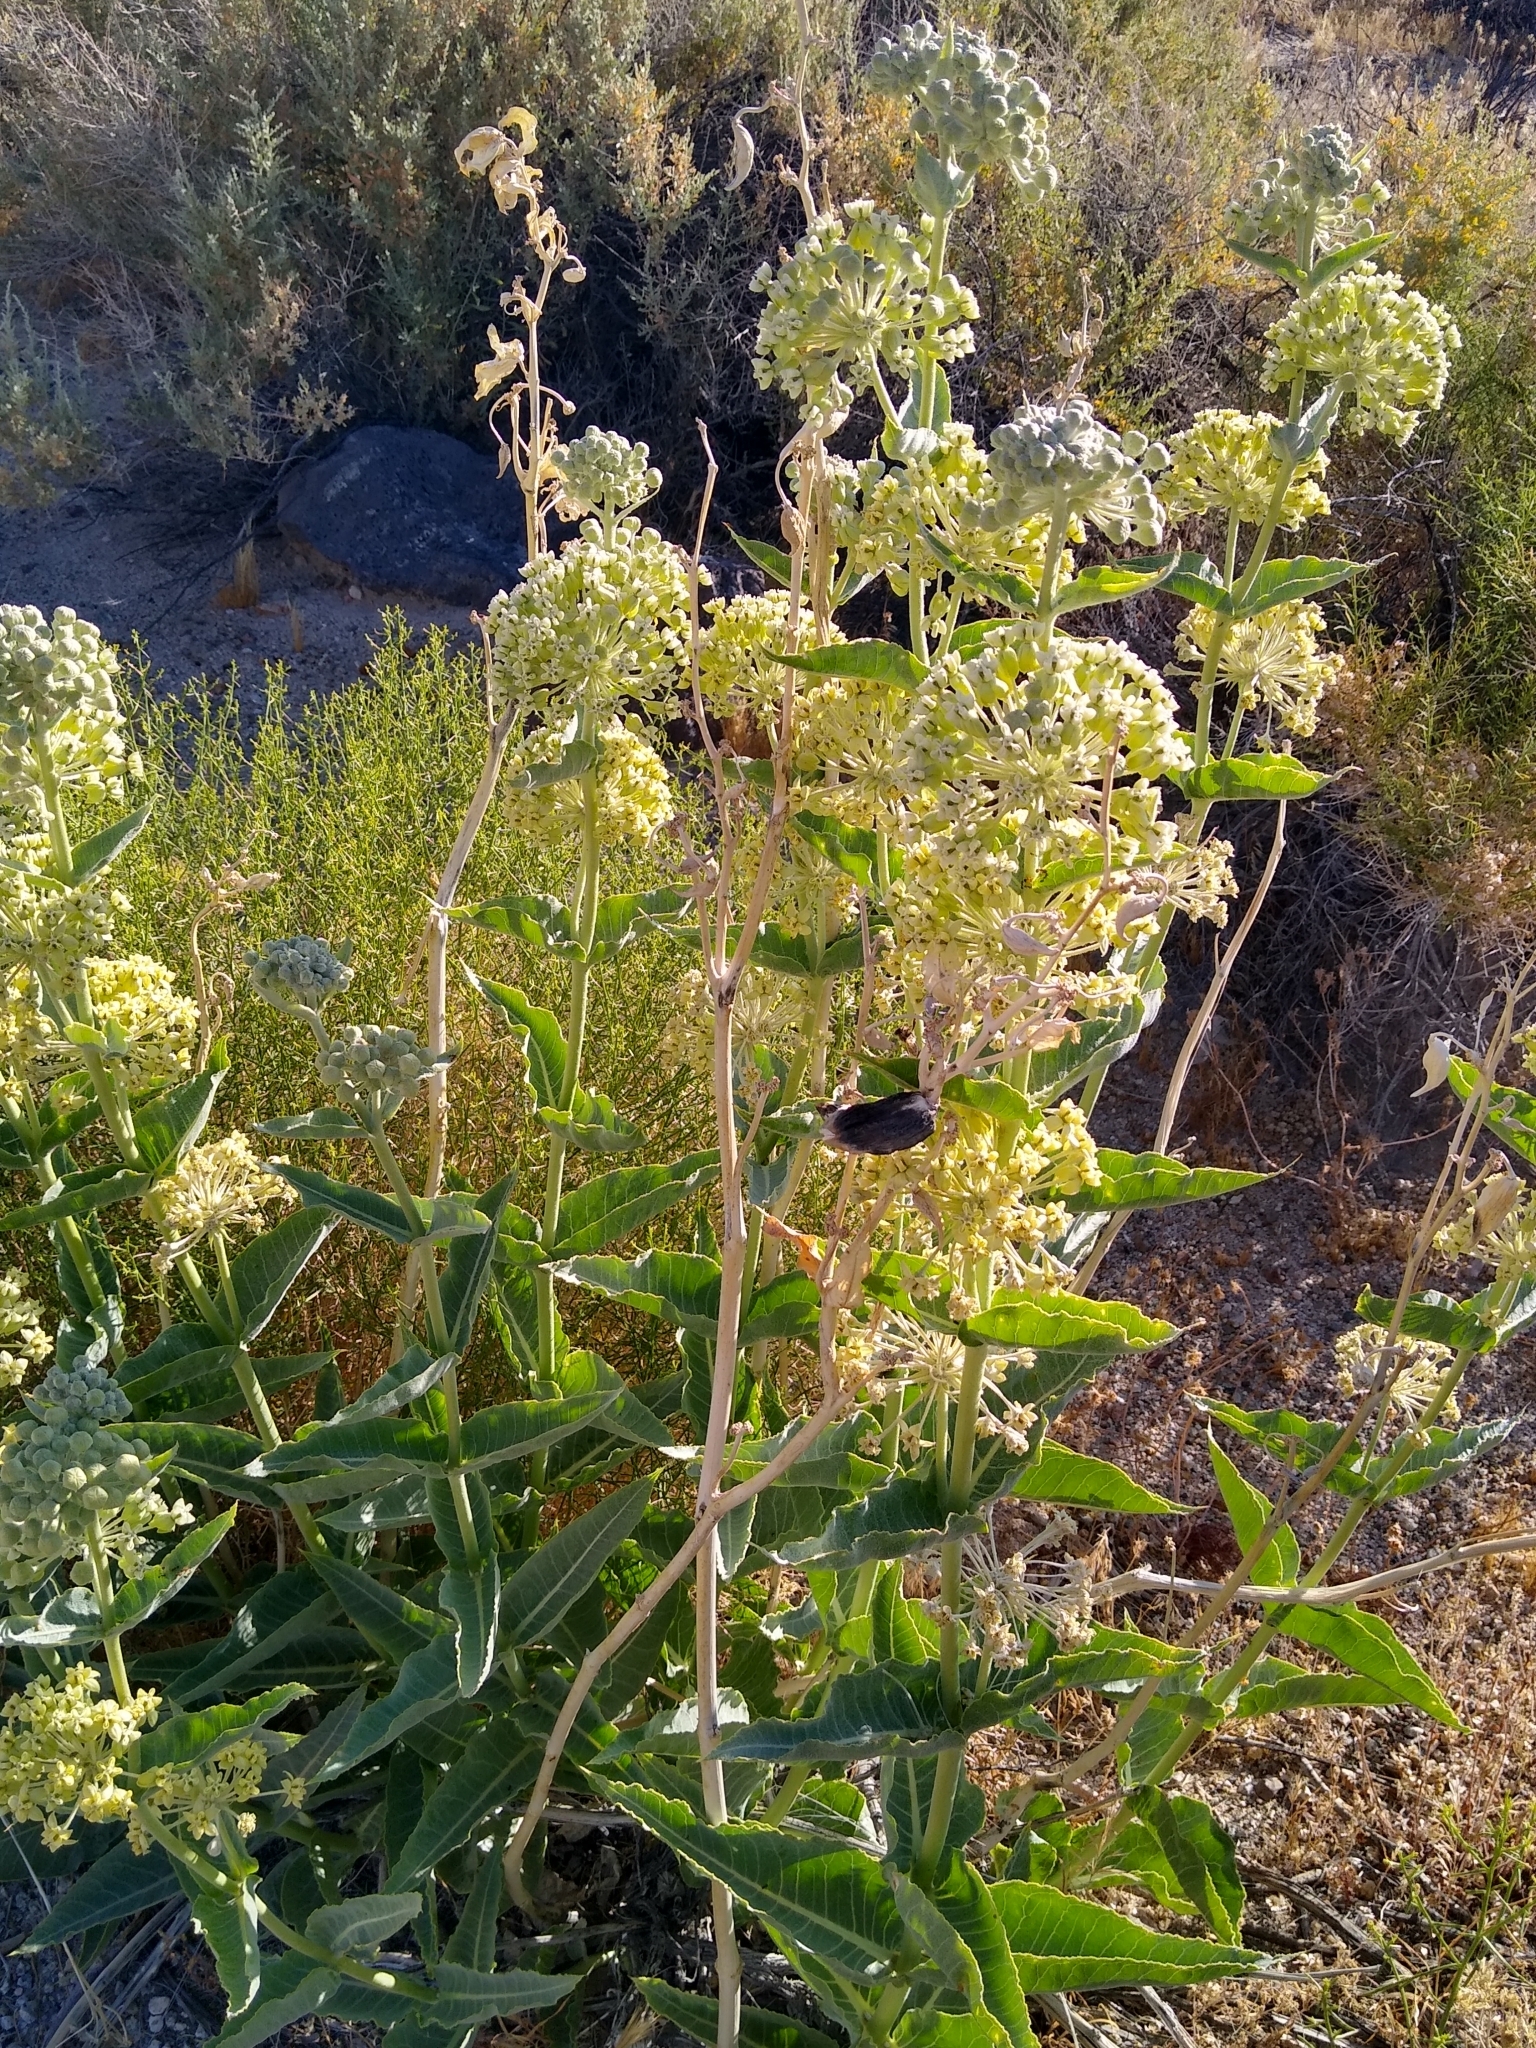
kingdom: Plantae
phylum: Tracheophyta
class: Magnoliopsida
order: Gentianales
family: Apocynaceae
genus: Asclepias
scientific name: Asclepias erosa
